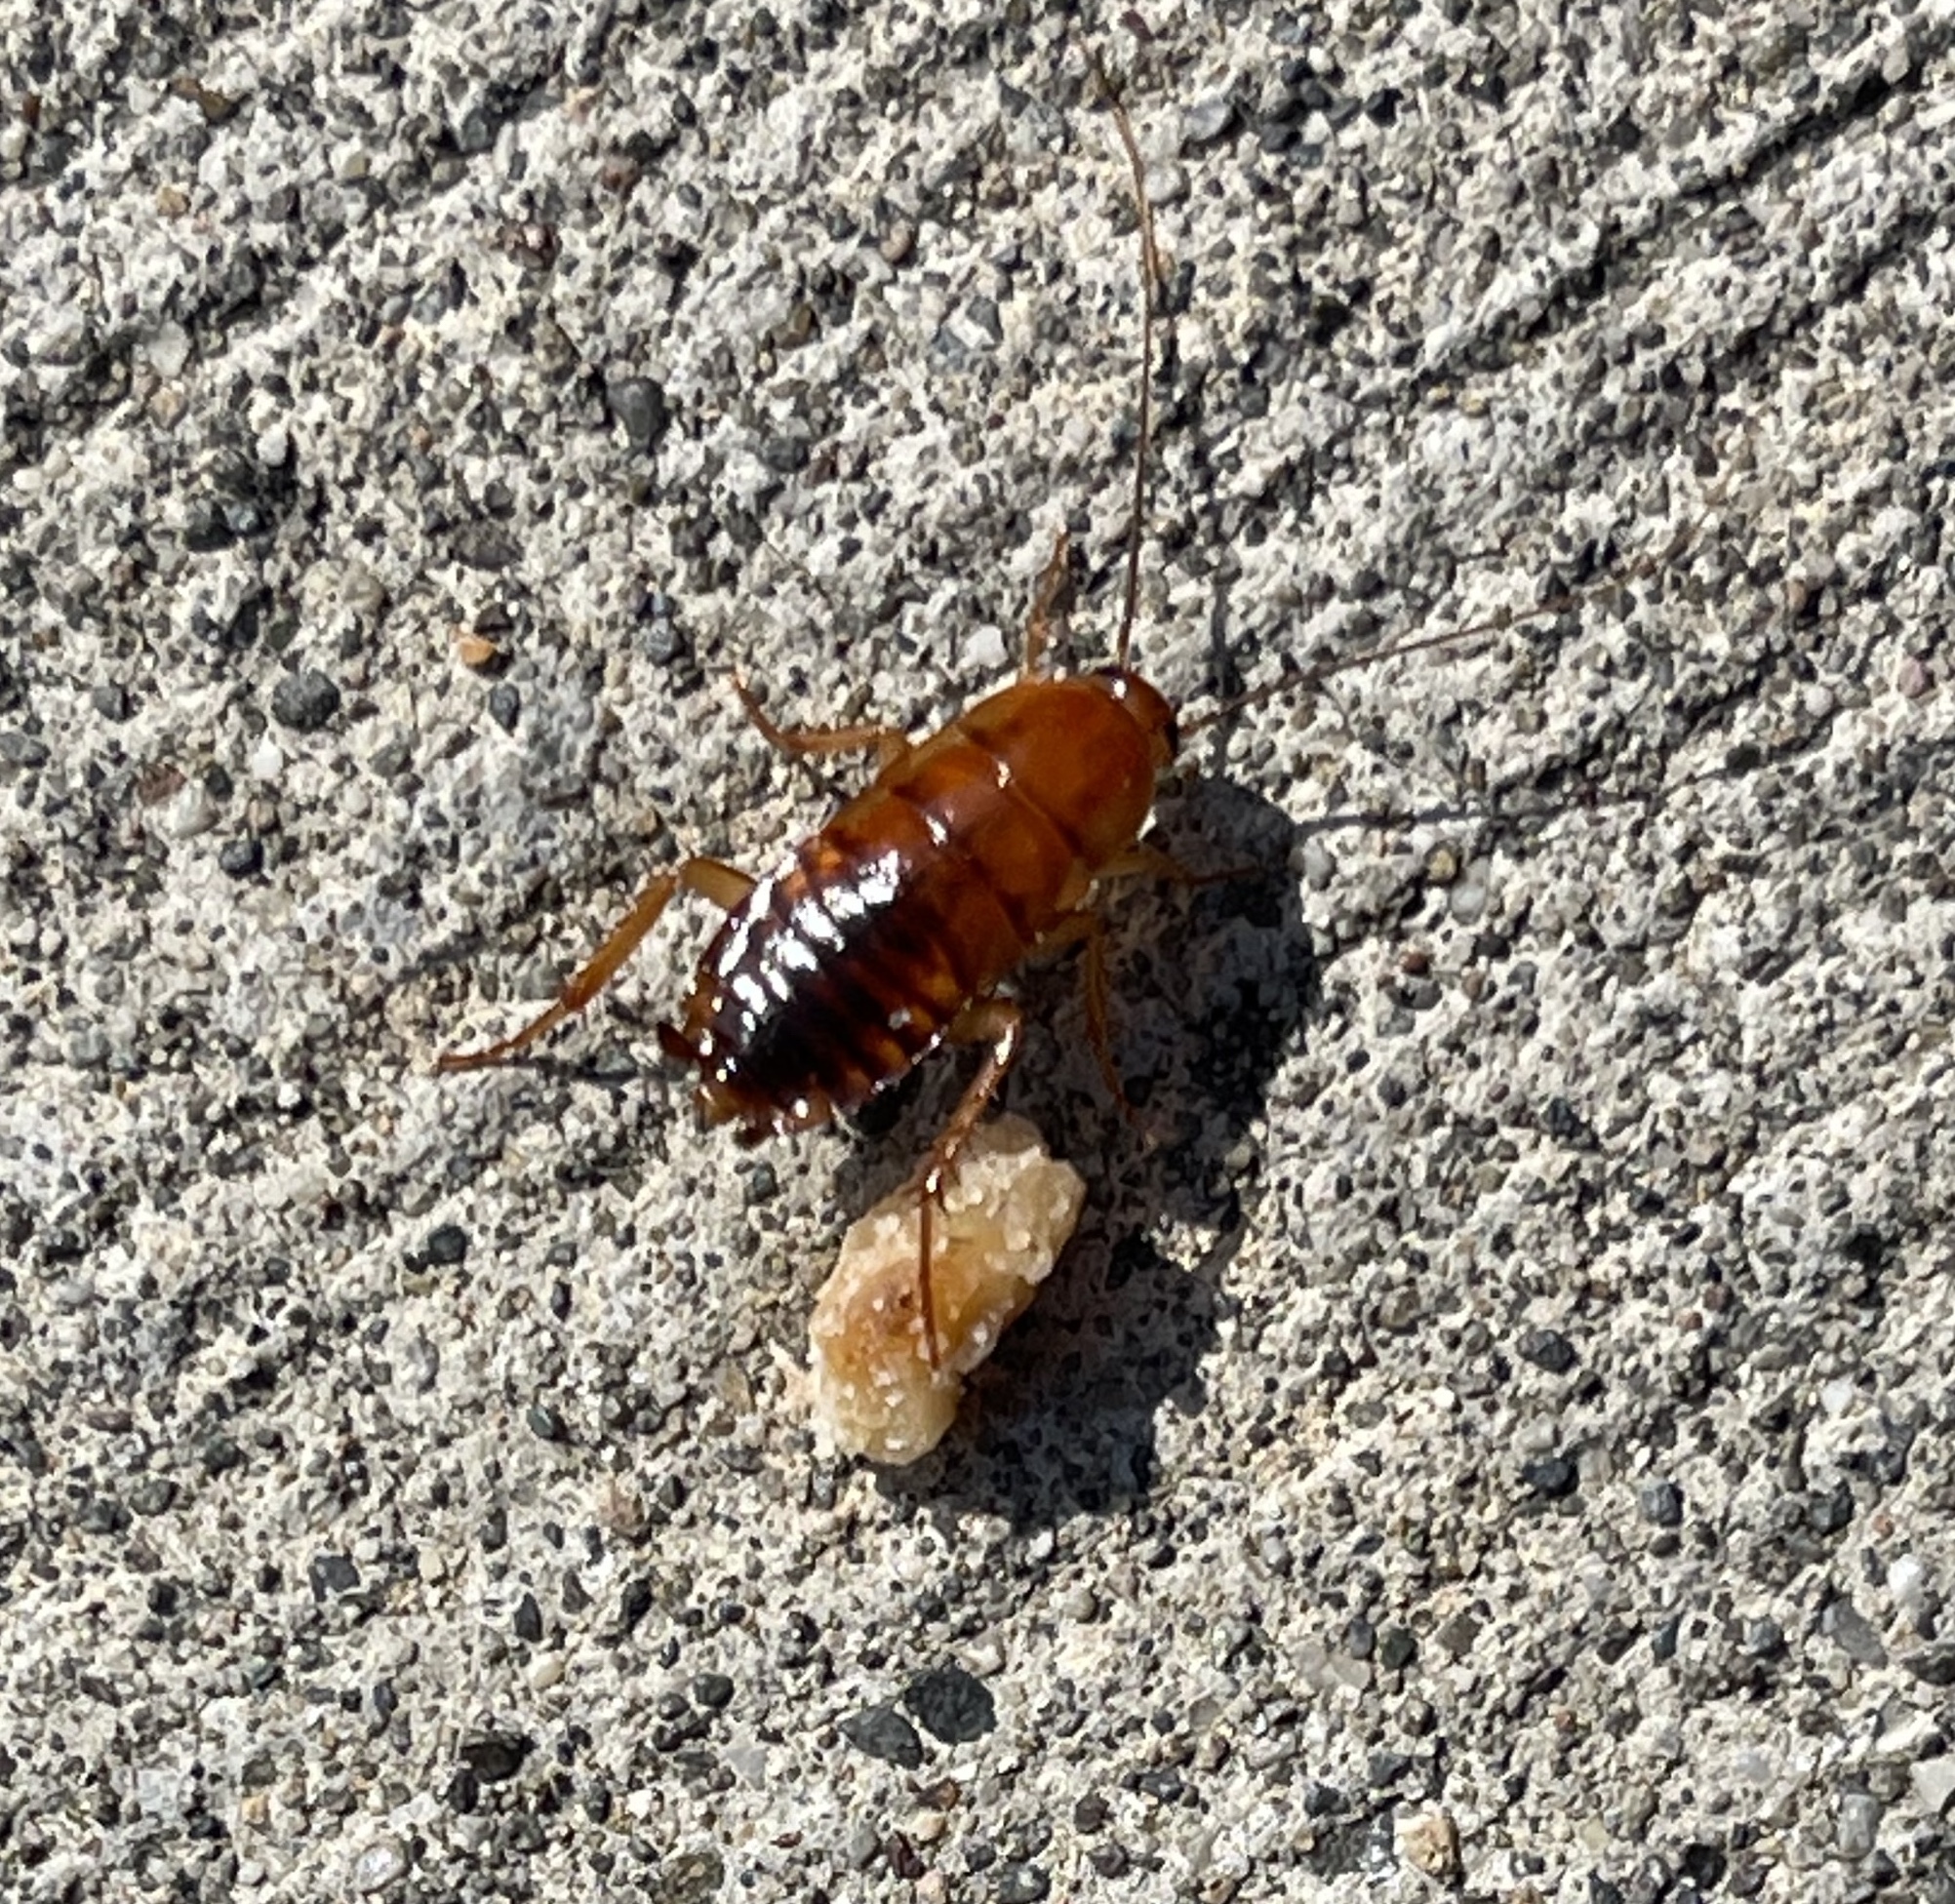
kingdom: Animalia
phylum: Arthropoda
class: Insecta
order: Blattodea
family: Blattidae
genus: Periplaneta
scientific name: Periplaneta lateralis
